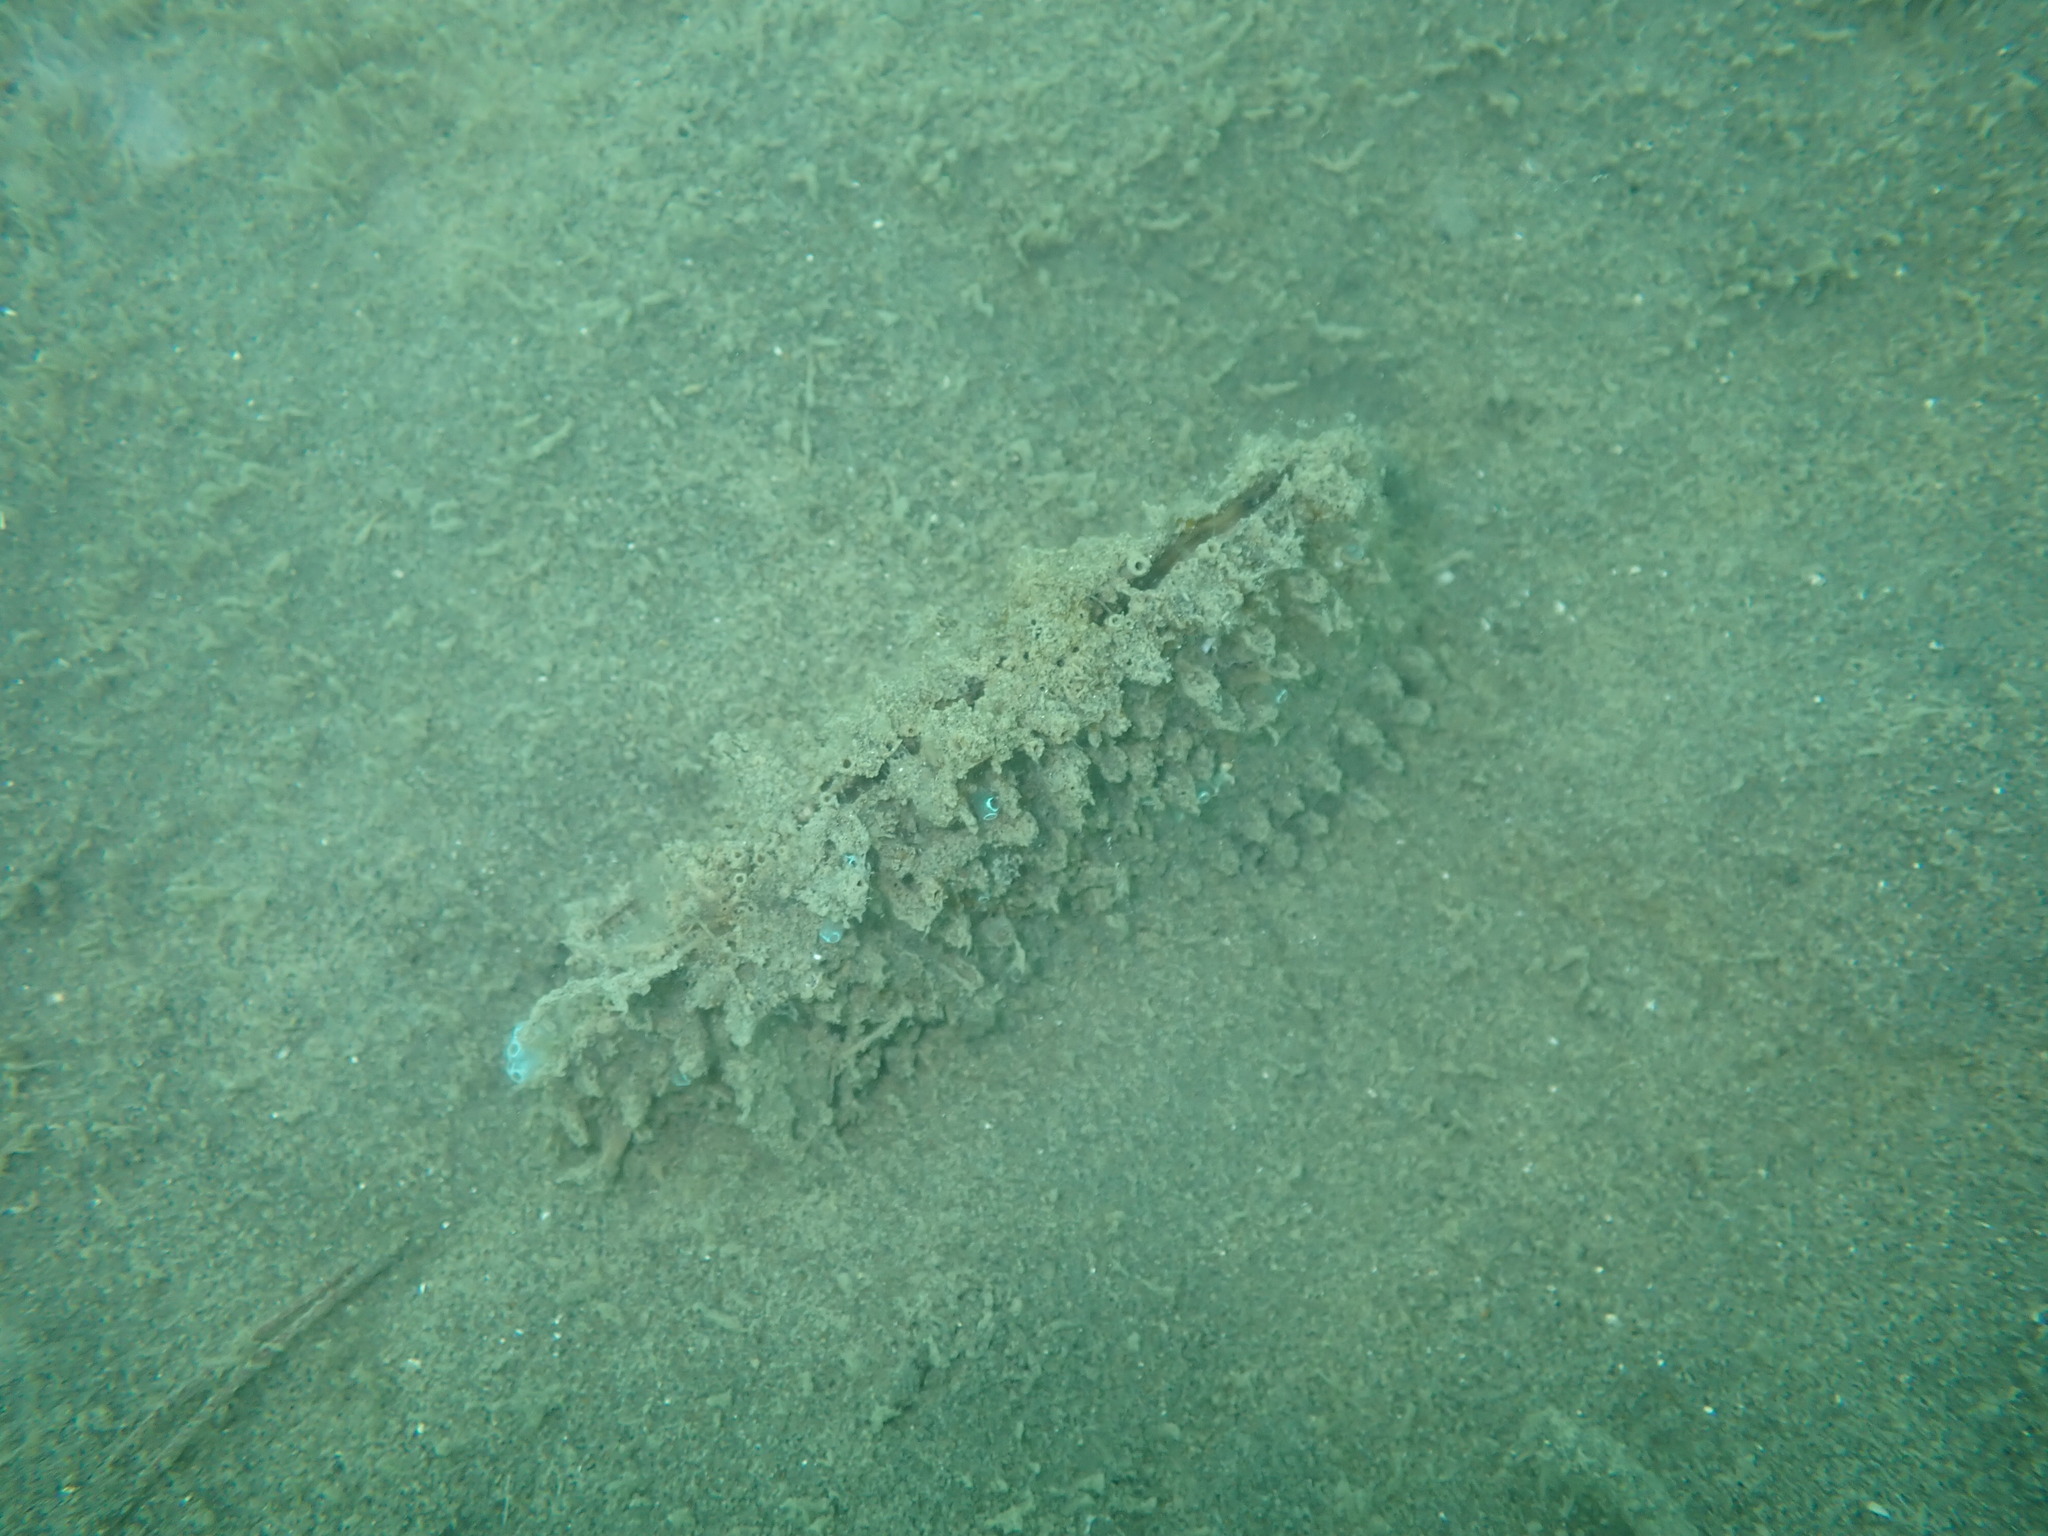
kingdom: Animalia
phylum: Mollusca
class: Bivalvia
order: Ostreida
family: Pinnidae
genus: Atrina
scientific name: Atrina zelandica
